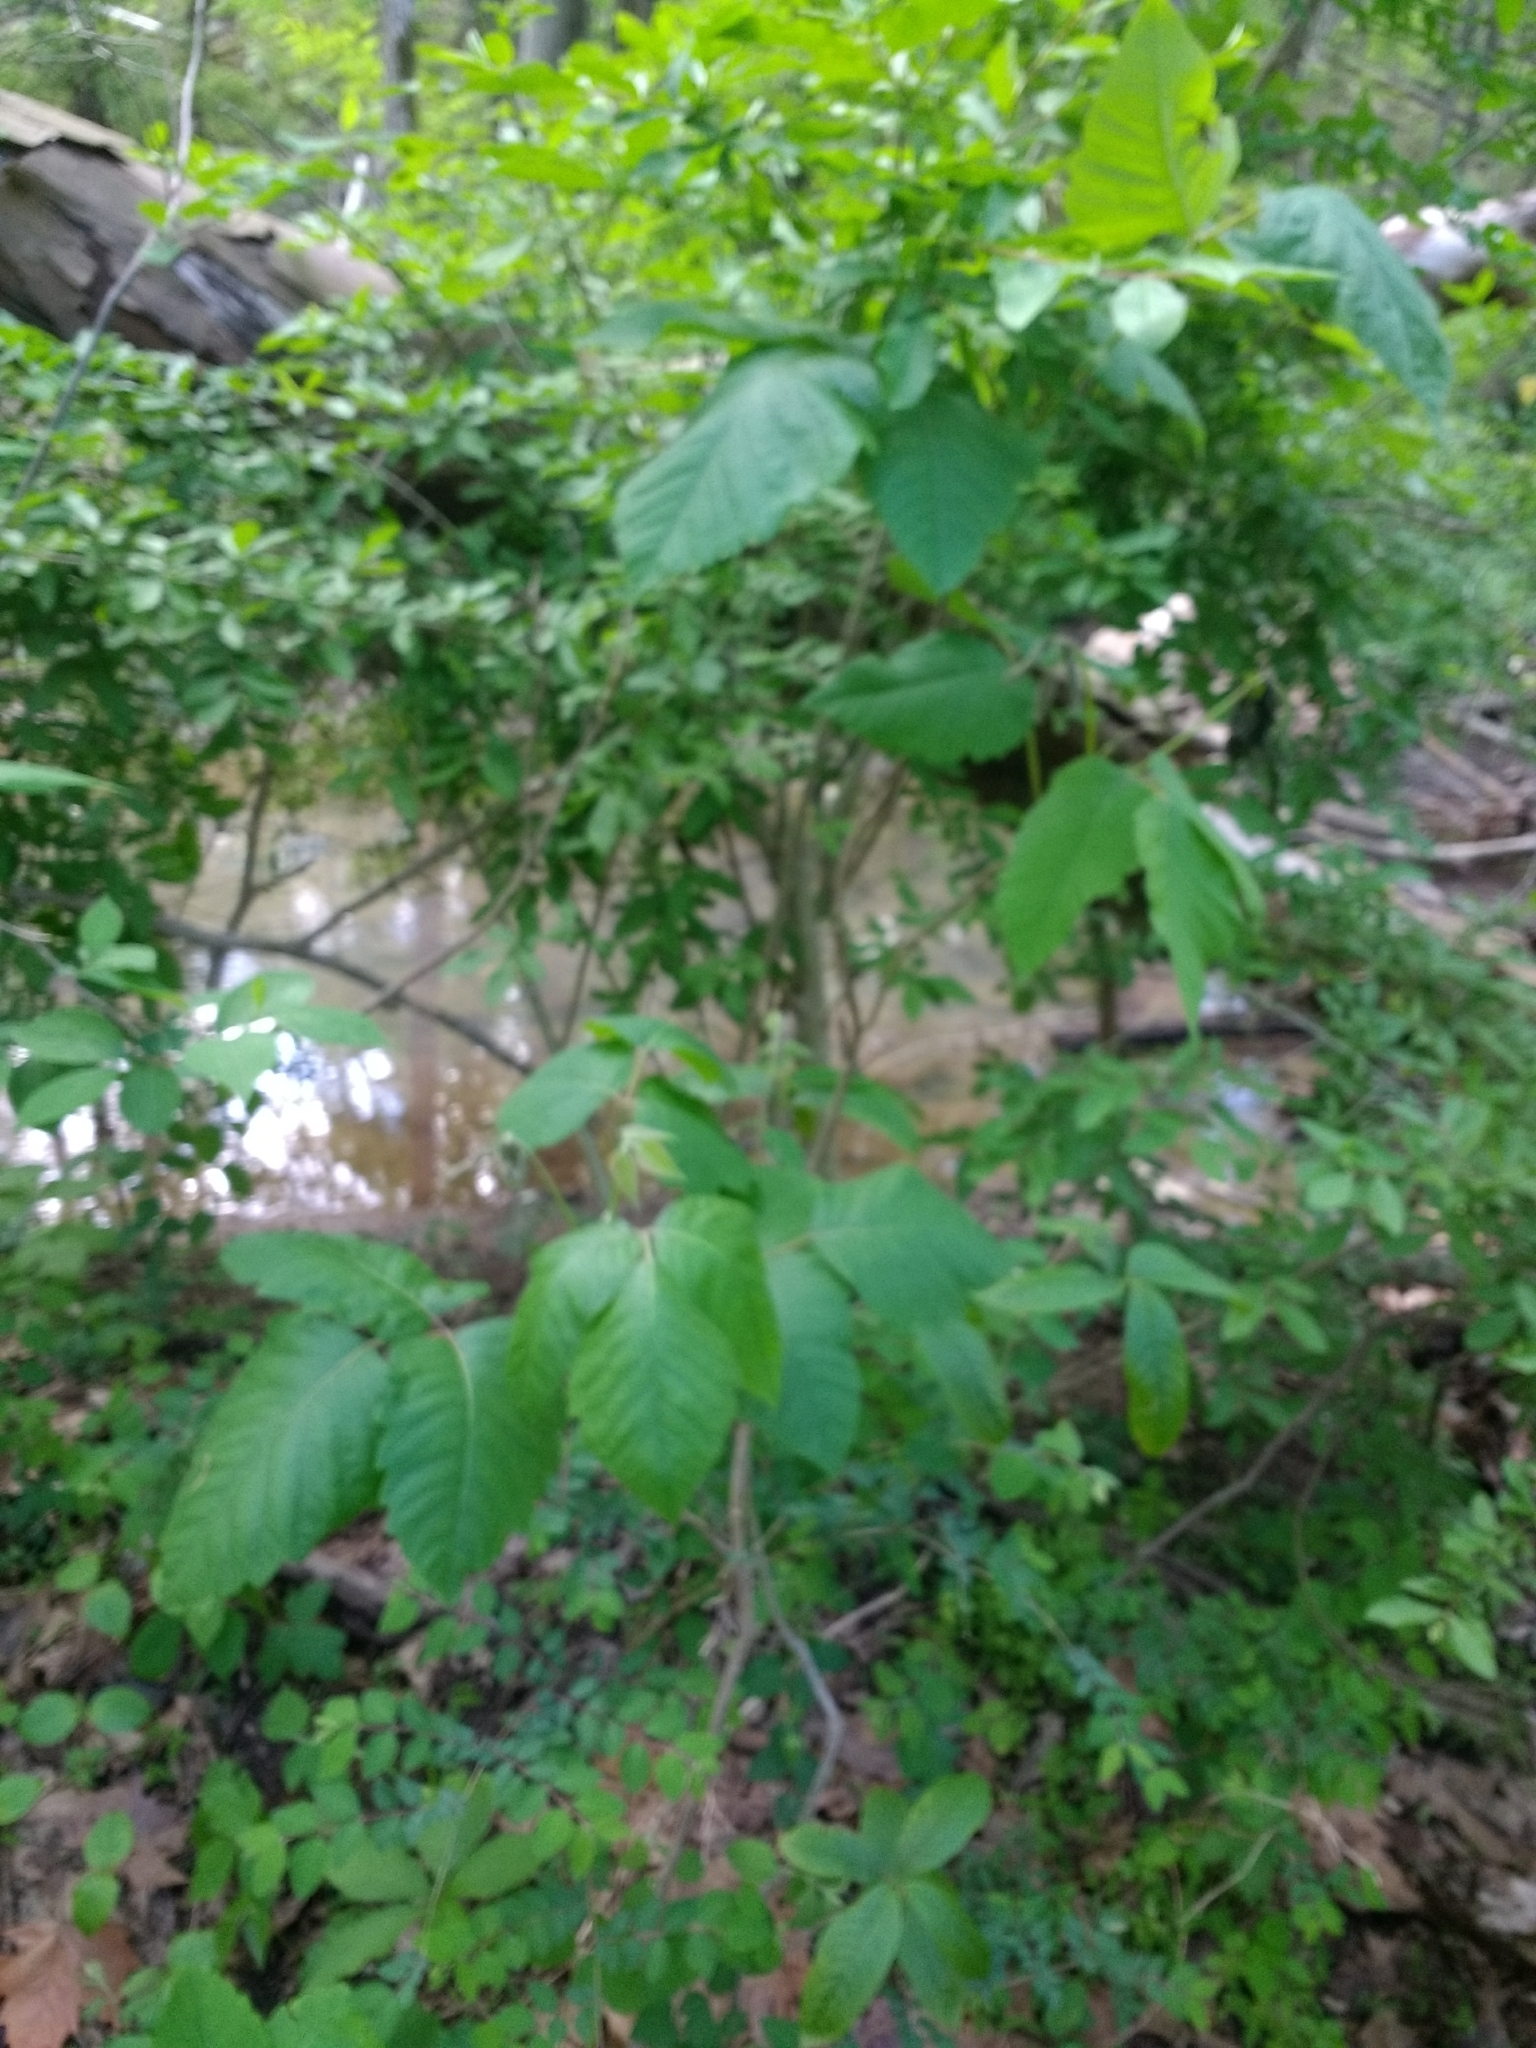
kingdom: Plantae
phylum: Tracheophyta
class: Magnoliopsida
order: Sapindales
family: Anacardiaceae
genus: Toxicodendron
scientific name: Toxicodendron radicans
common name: Poison ivy
